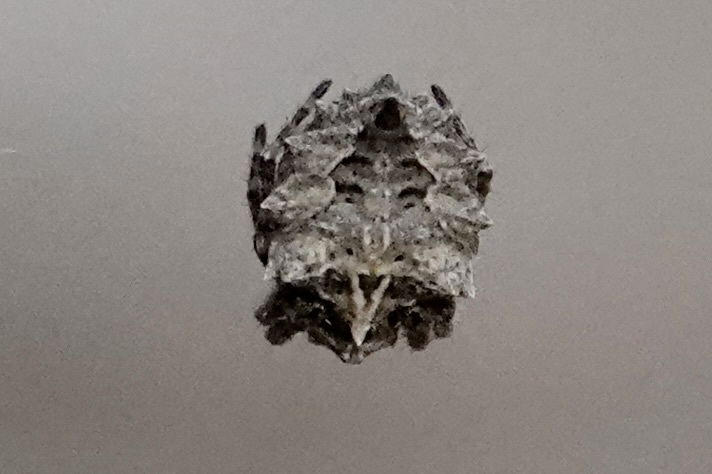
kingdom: Animalia
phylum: Arthropoda
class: Arachnida
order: Araneae
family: Araneidae
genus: Acanthepeira
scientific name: Acanthepeira stellata
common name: Starbellied orbweaver
